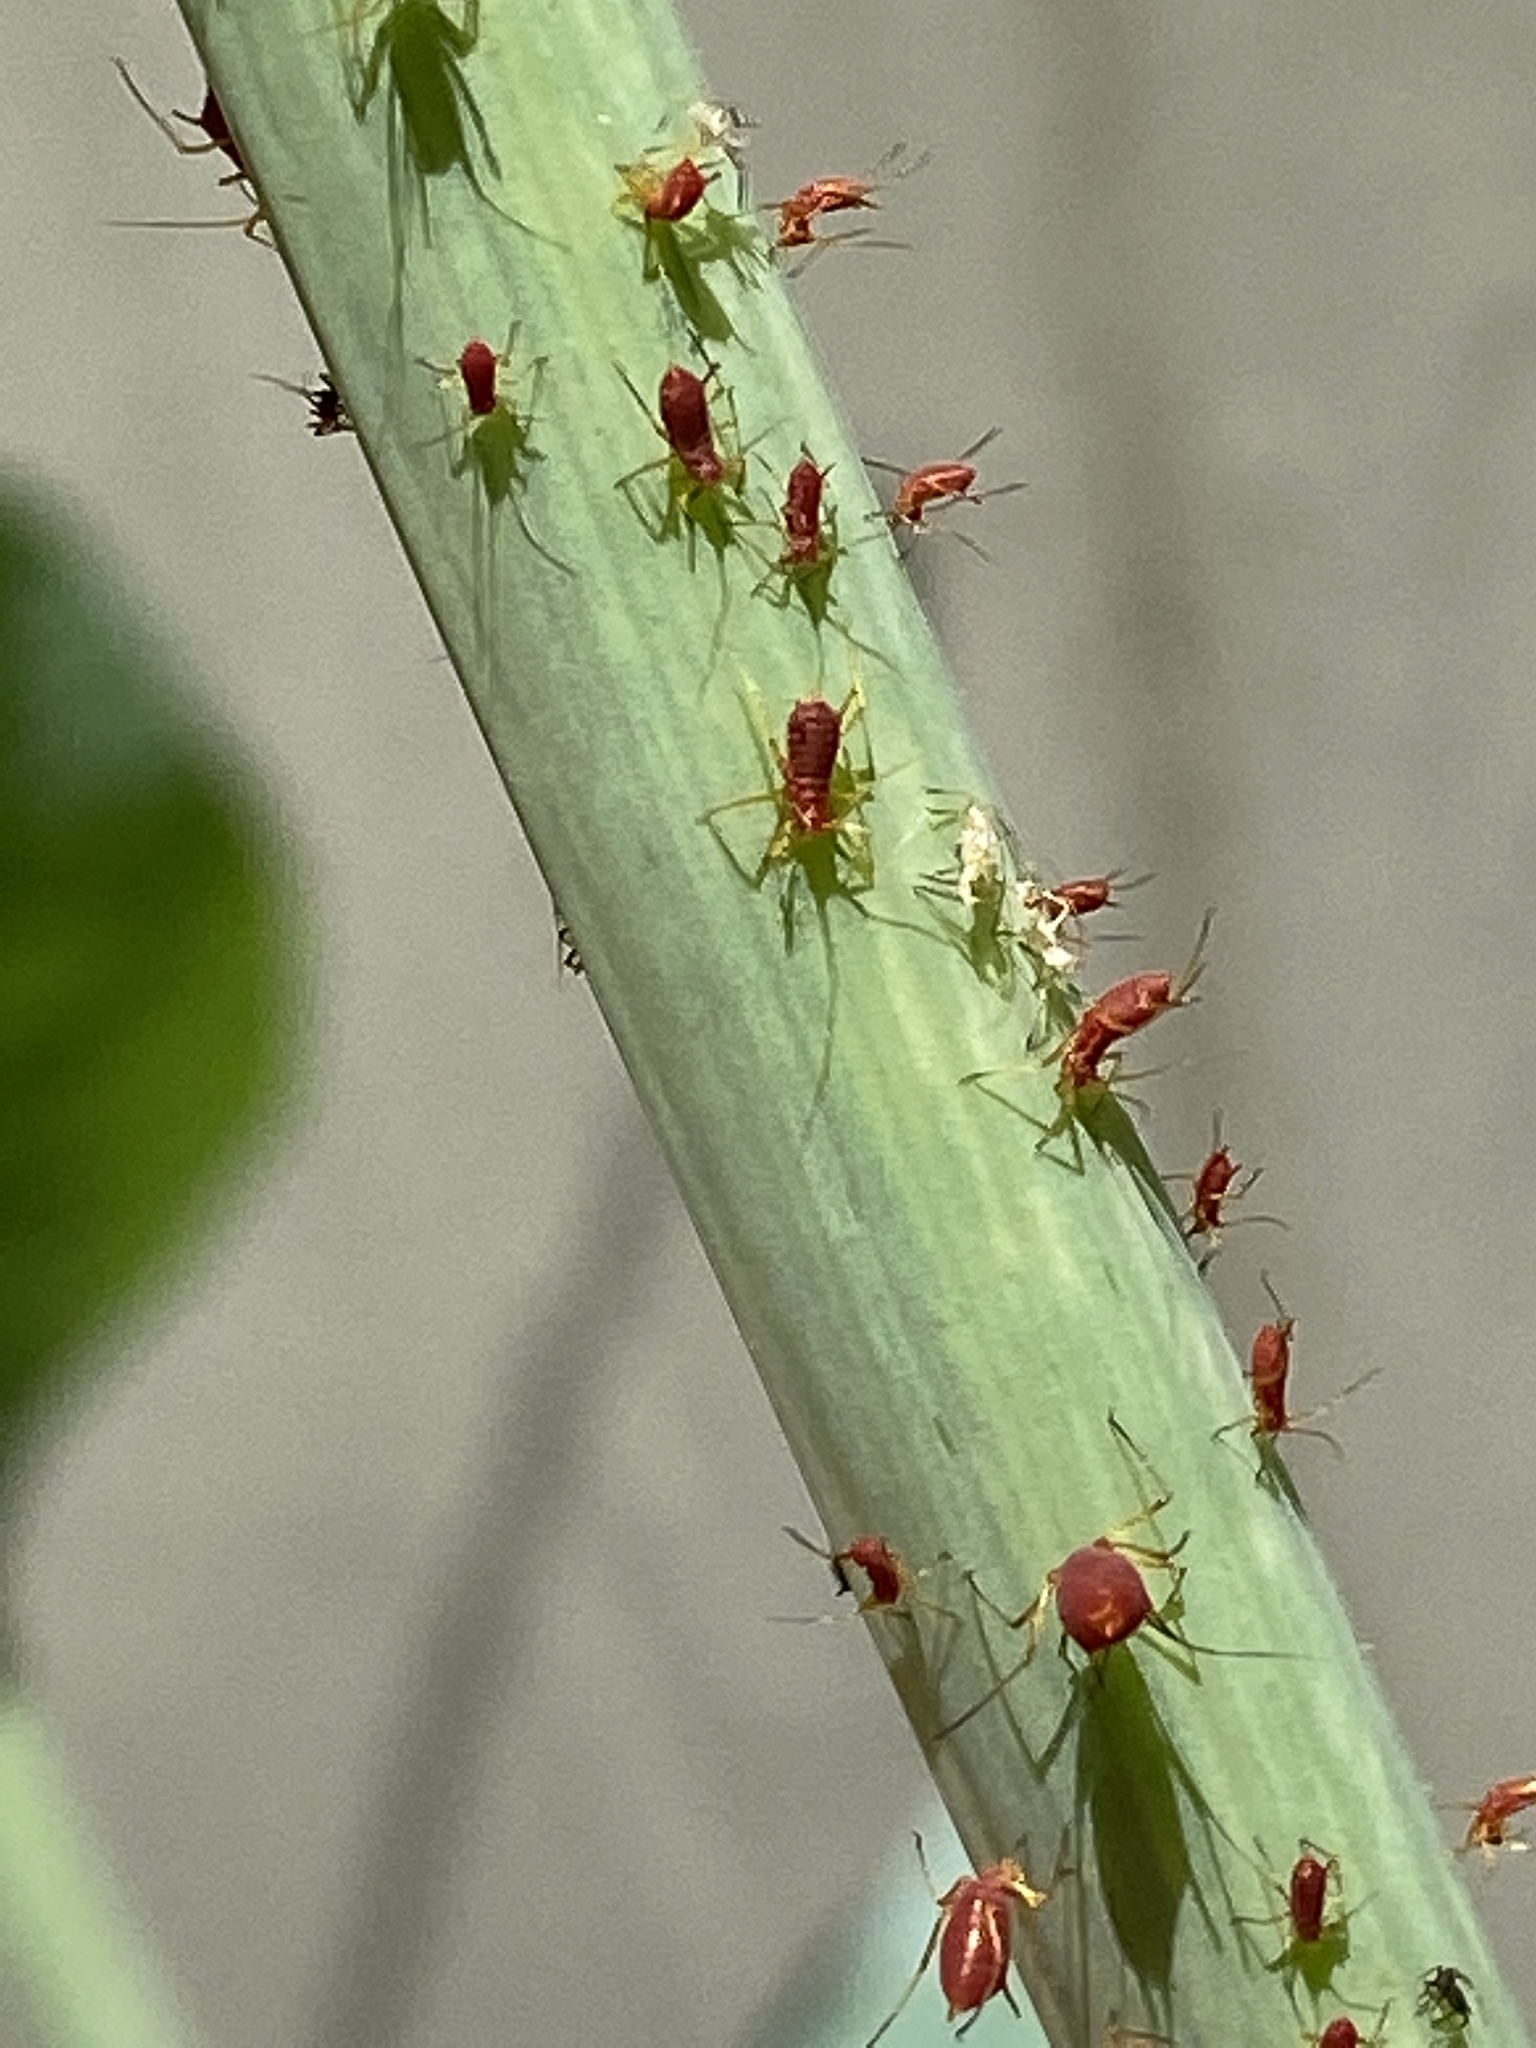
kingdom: Animalia
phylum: Arthropoda
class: Insecta
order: Hemiptera
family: Aphididae
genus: Uroleucon
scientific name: Uroleucon
